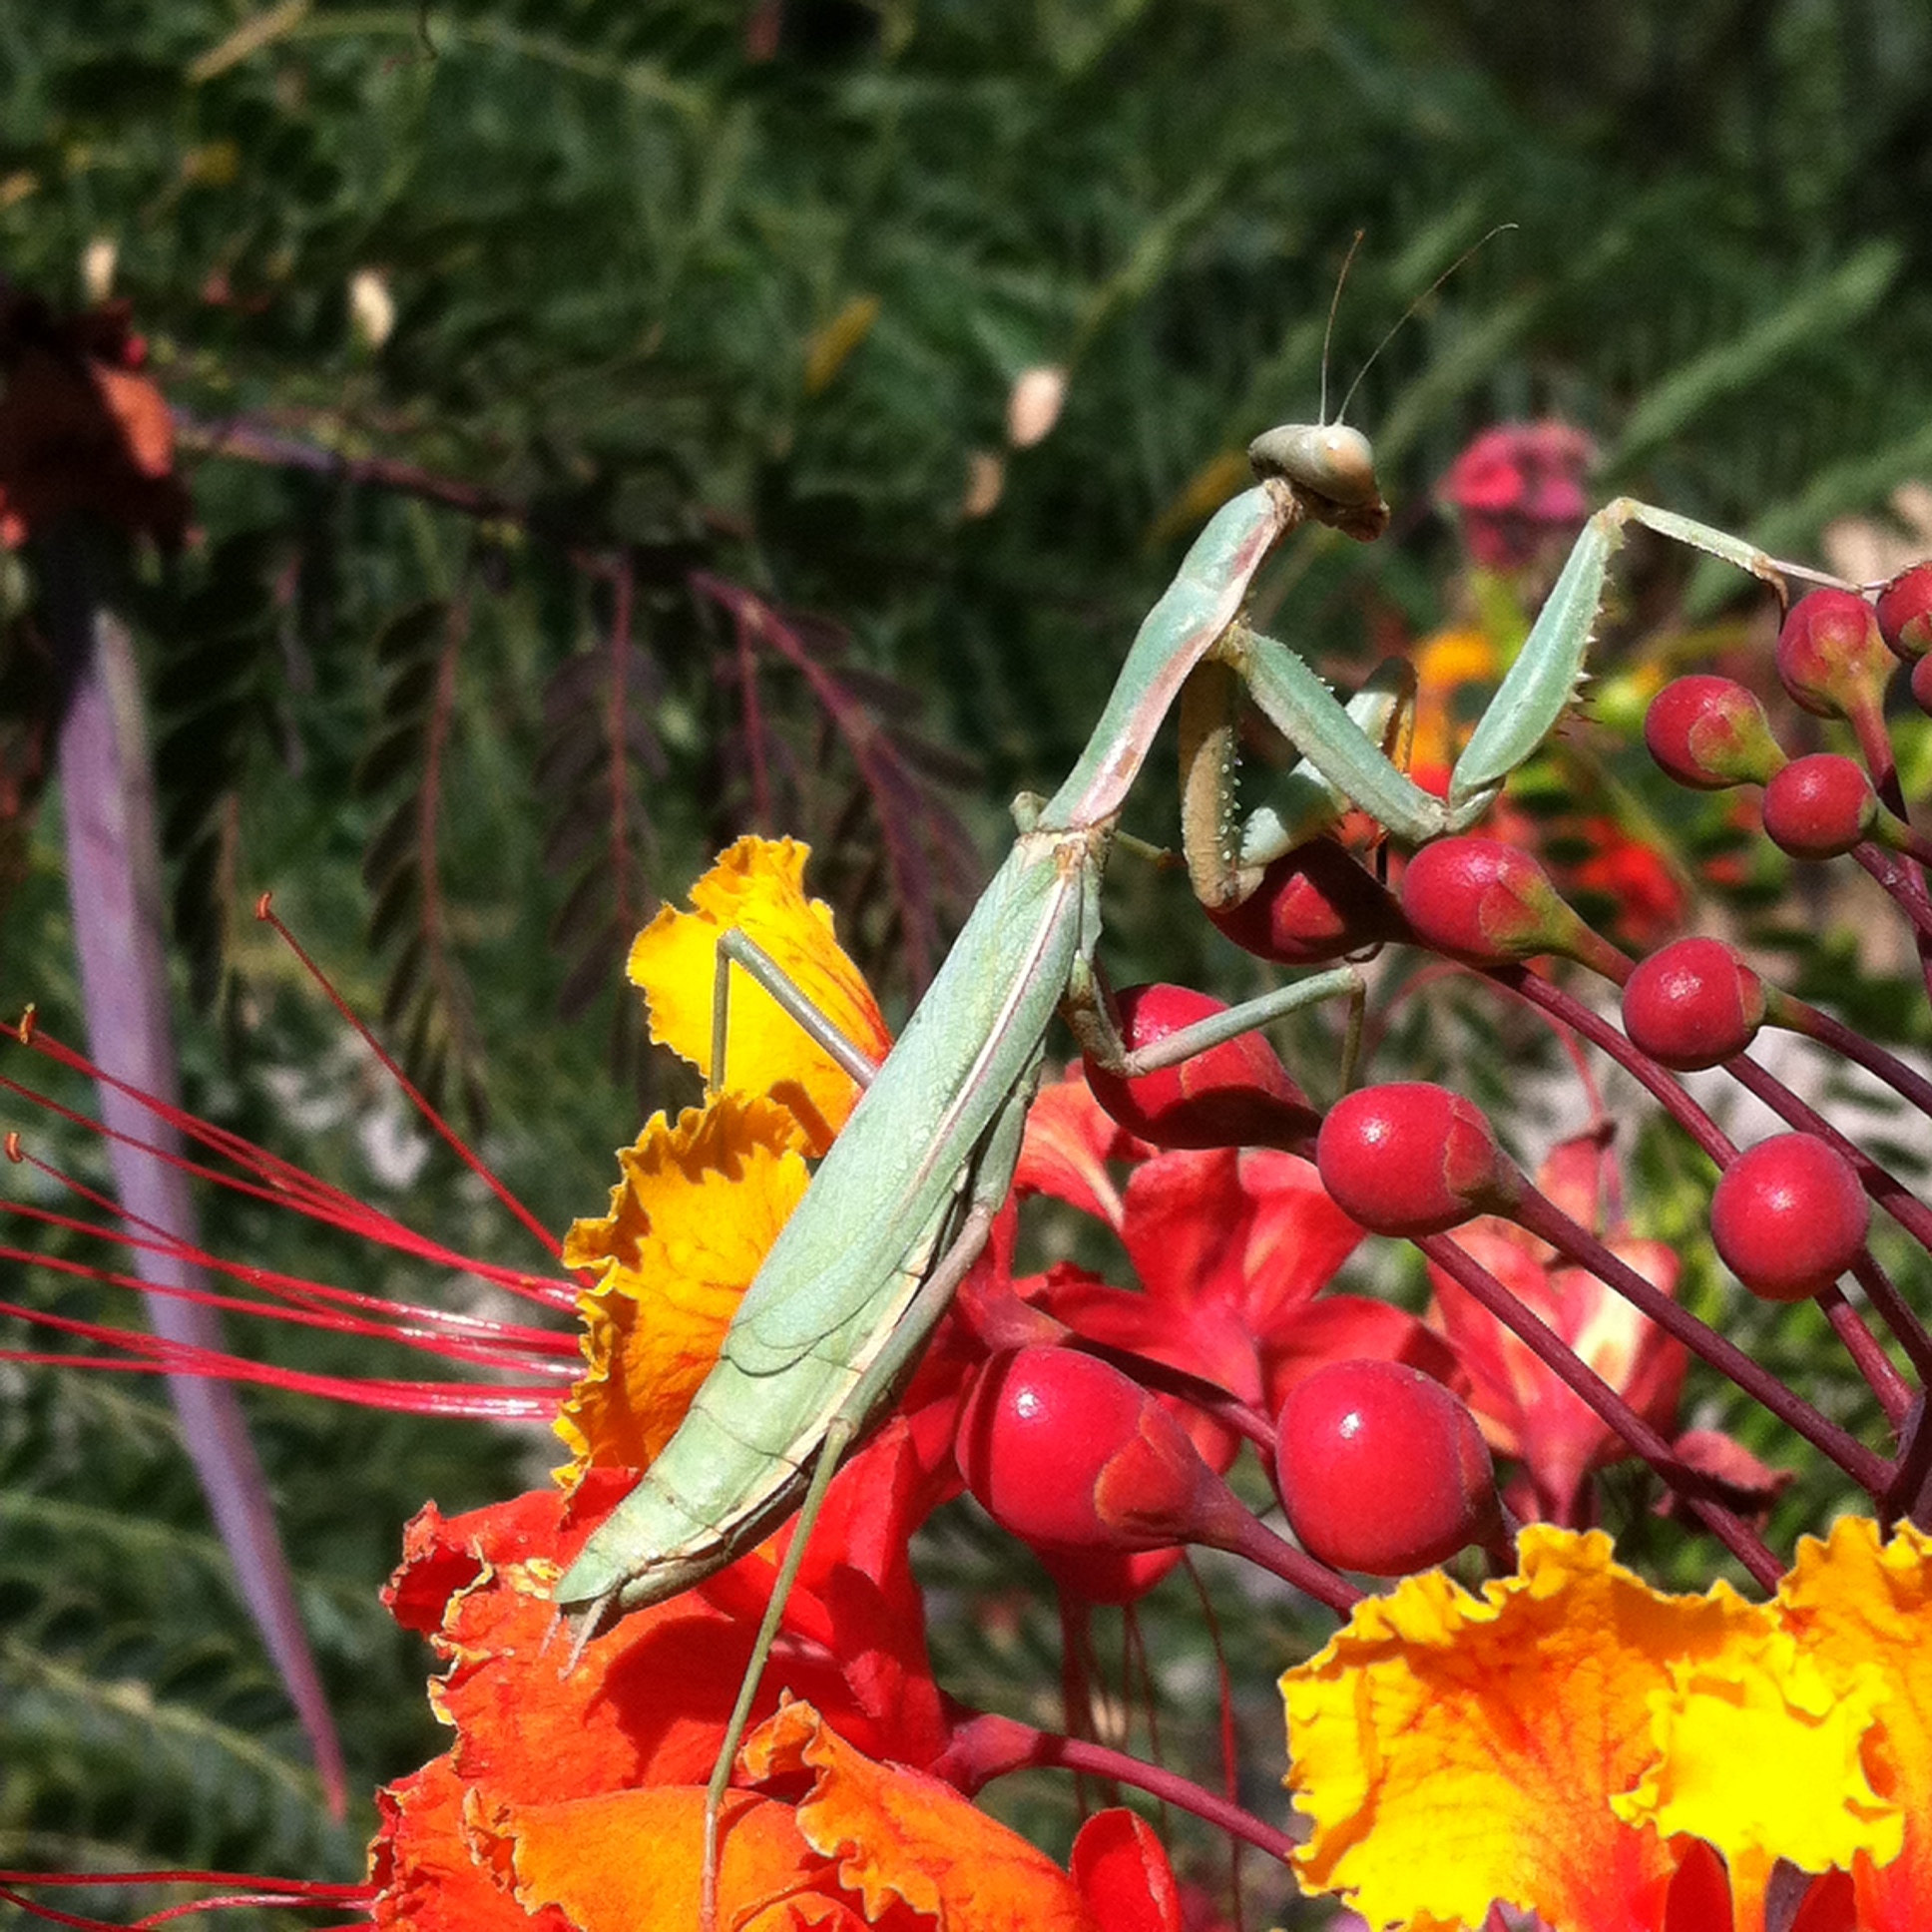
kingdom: Animalia
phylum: Arthropoda
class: Insecta
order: Mantodea
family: Eremiaphilidae
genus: Iris
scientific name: Iris oratoria
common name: Mediterranean mantis
